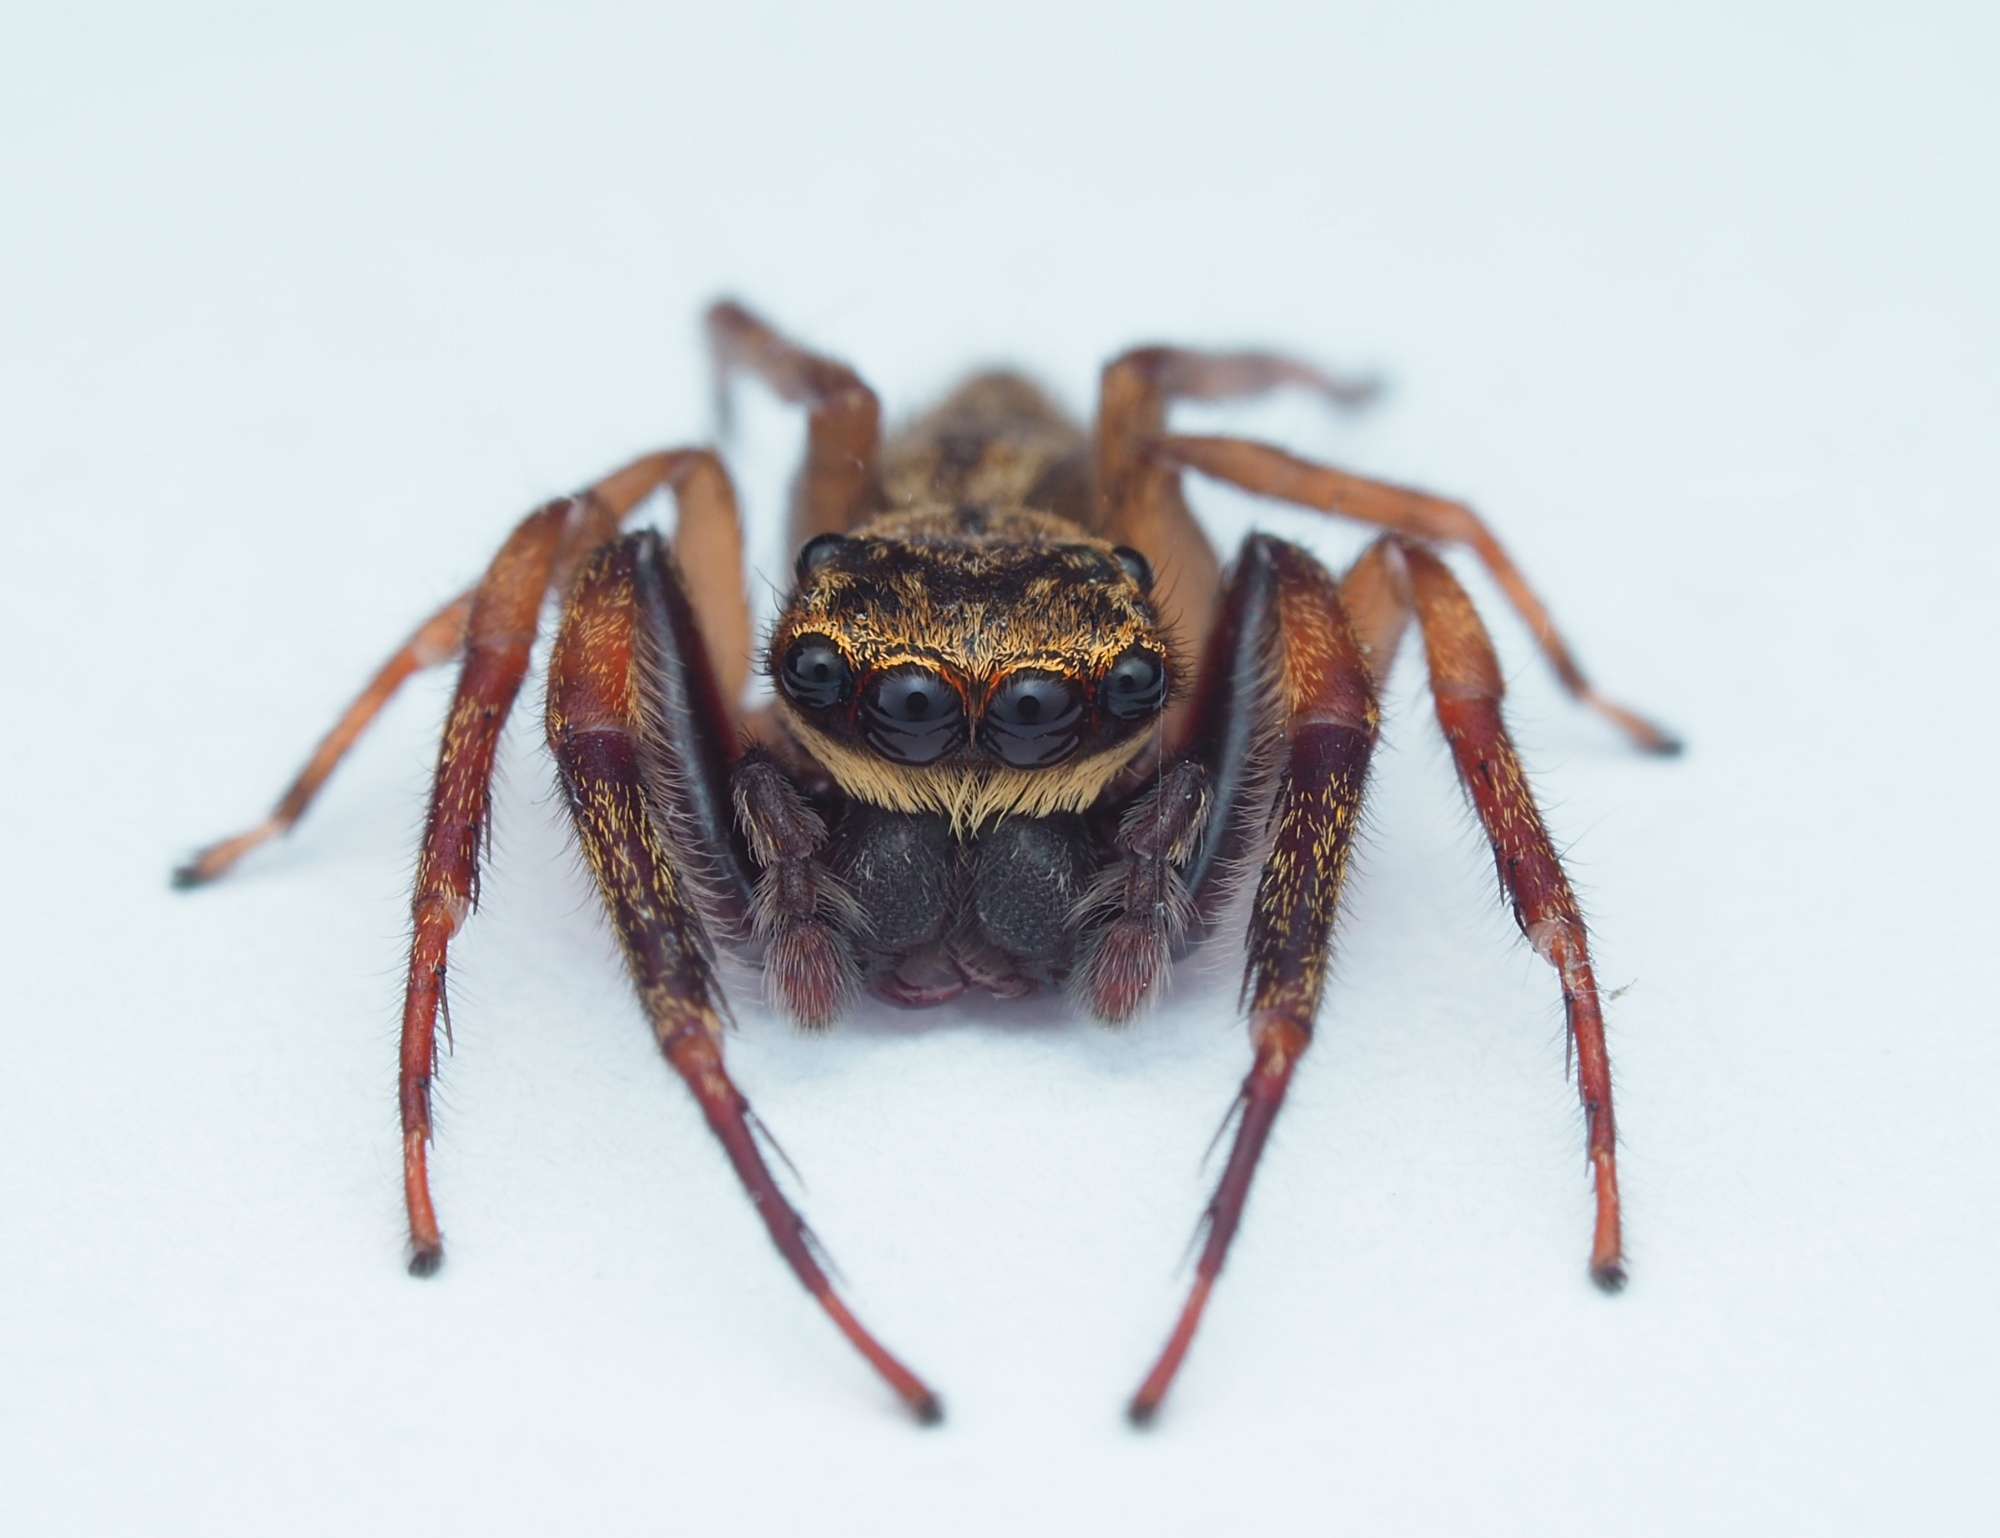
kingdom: Animalia
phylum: Arthropoda
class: Arachnida
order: Araneae
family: Salticidae
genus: Trite
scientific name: Trite auricoma
